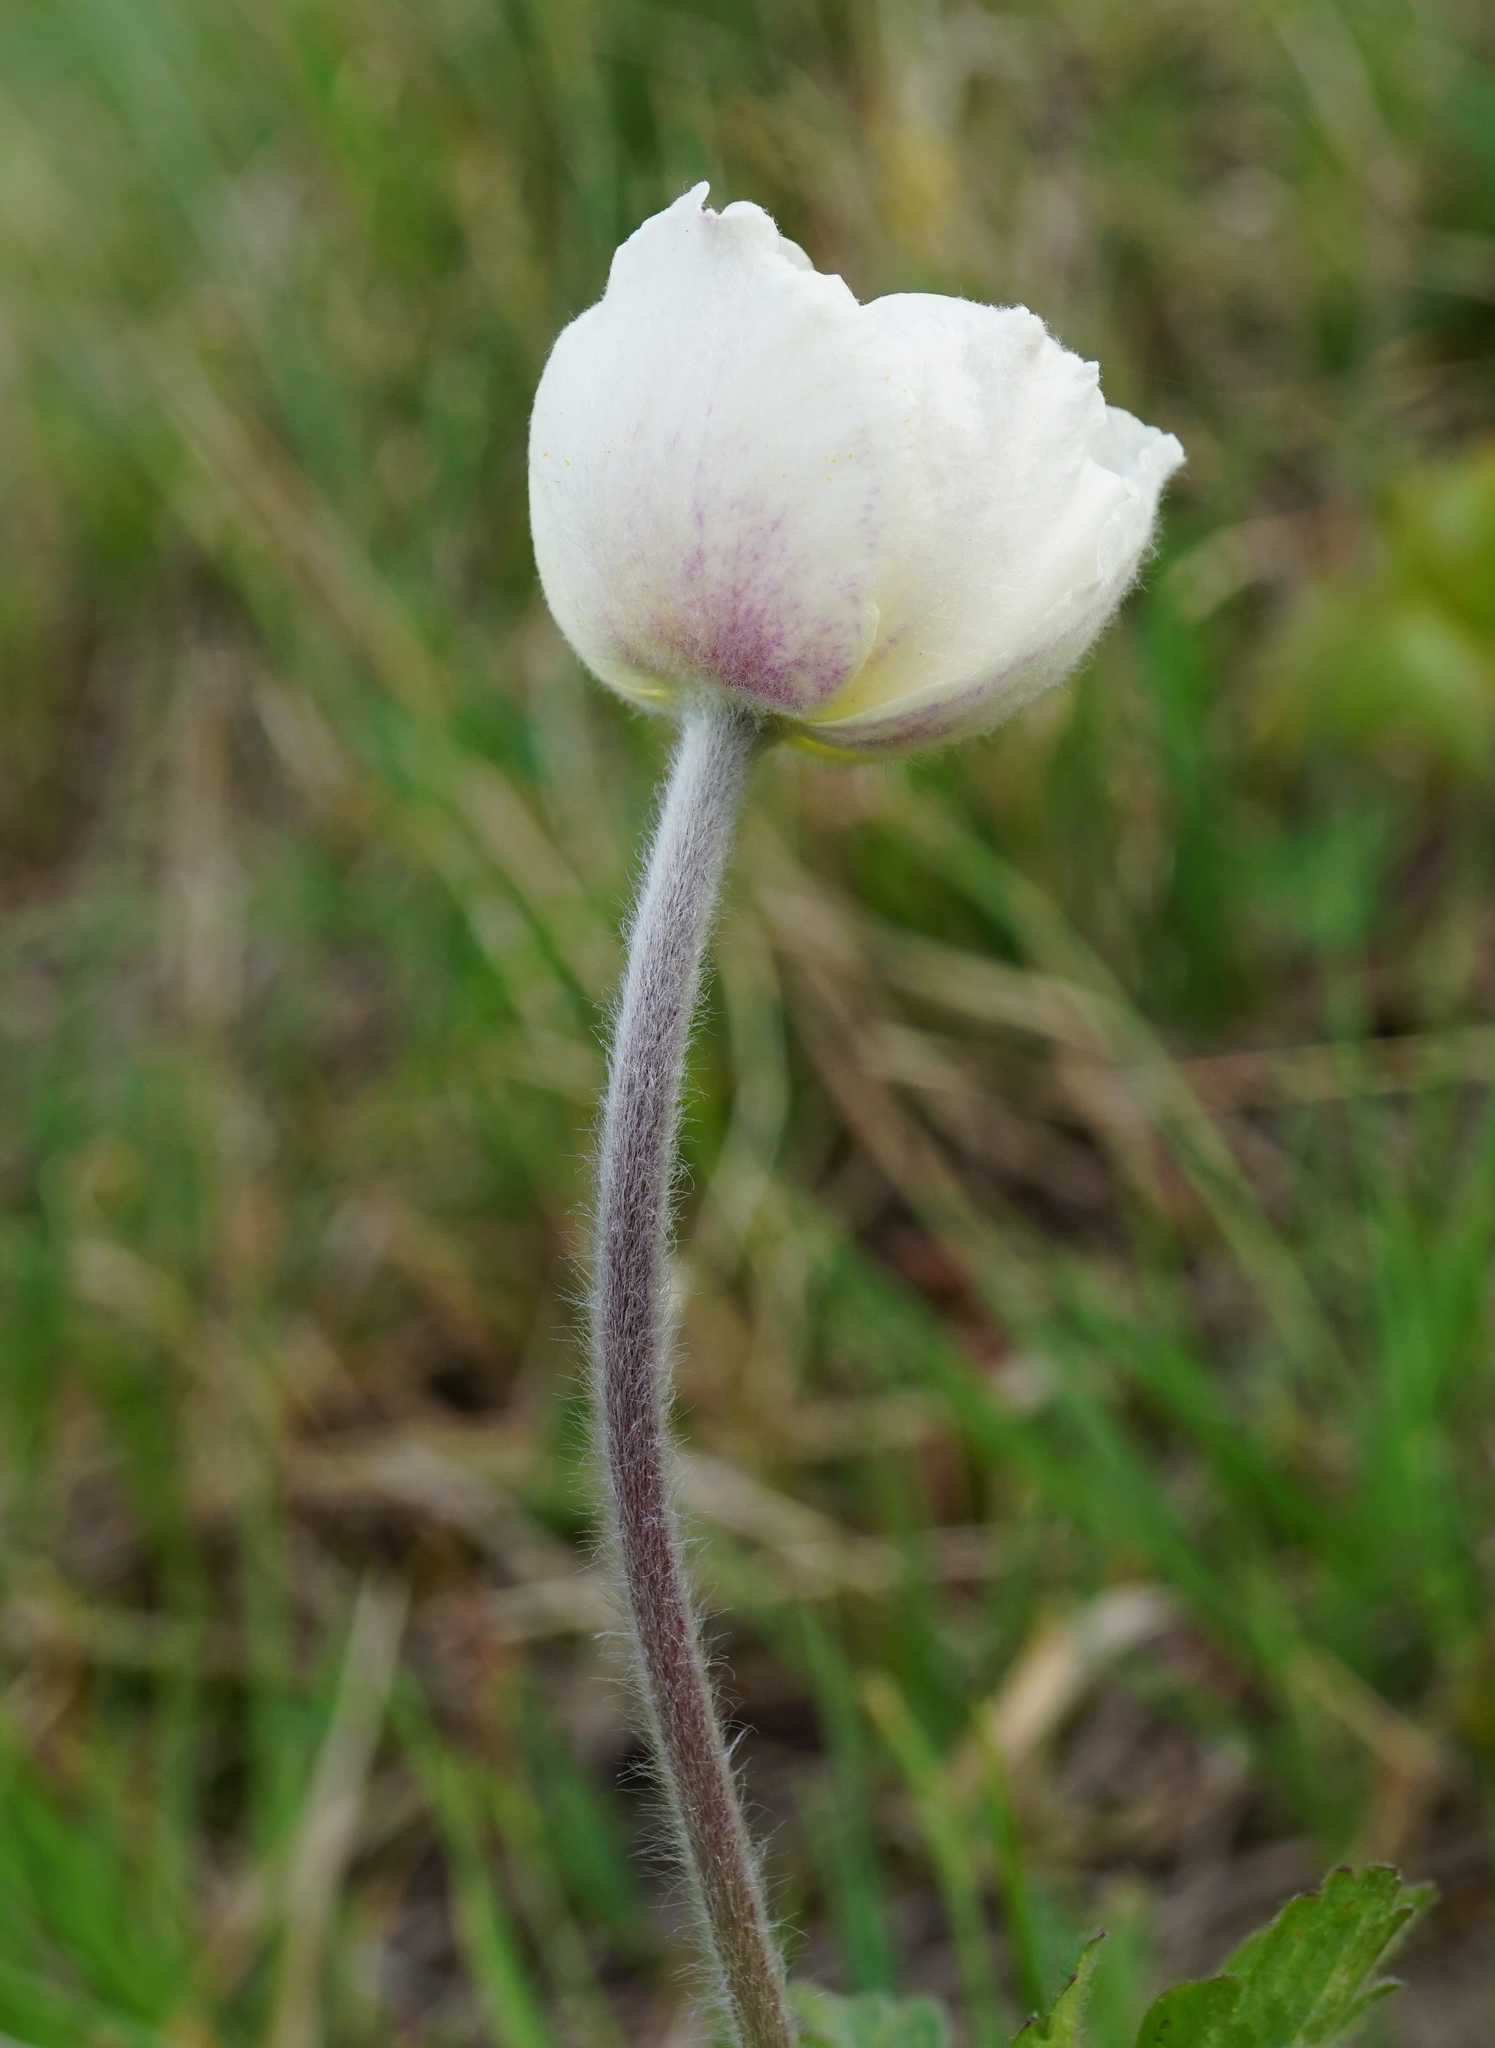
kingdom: Plantae
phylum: Tracheophyta
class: Magnoliopsida
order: Ranunculales
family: Ranunculaceae
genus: Anemone
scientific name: Anemone sylvestris
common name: Snowdrop anemone
